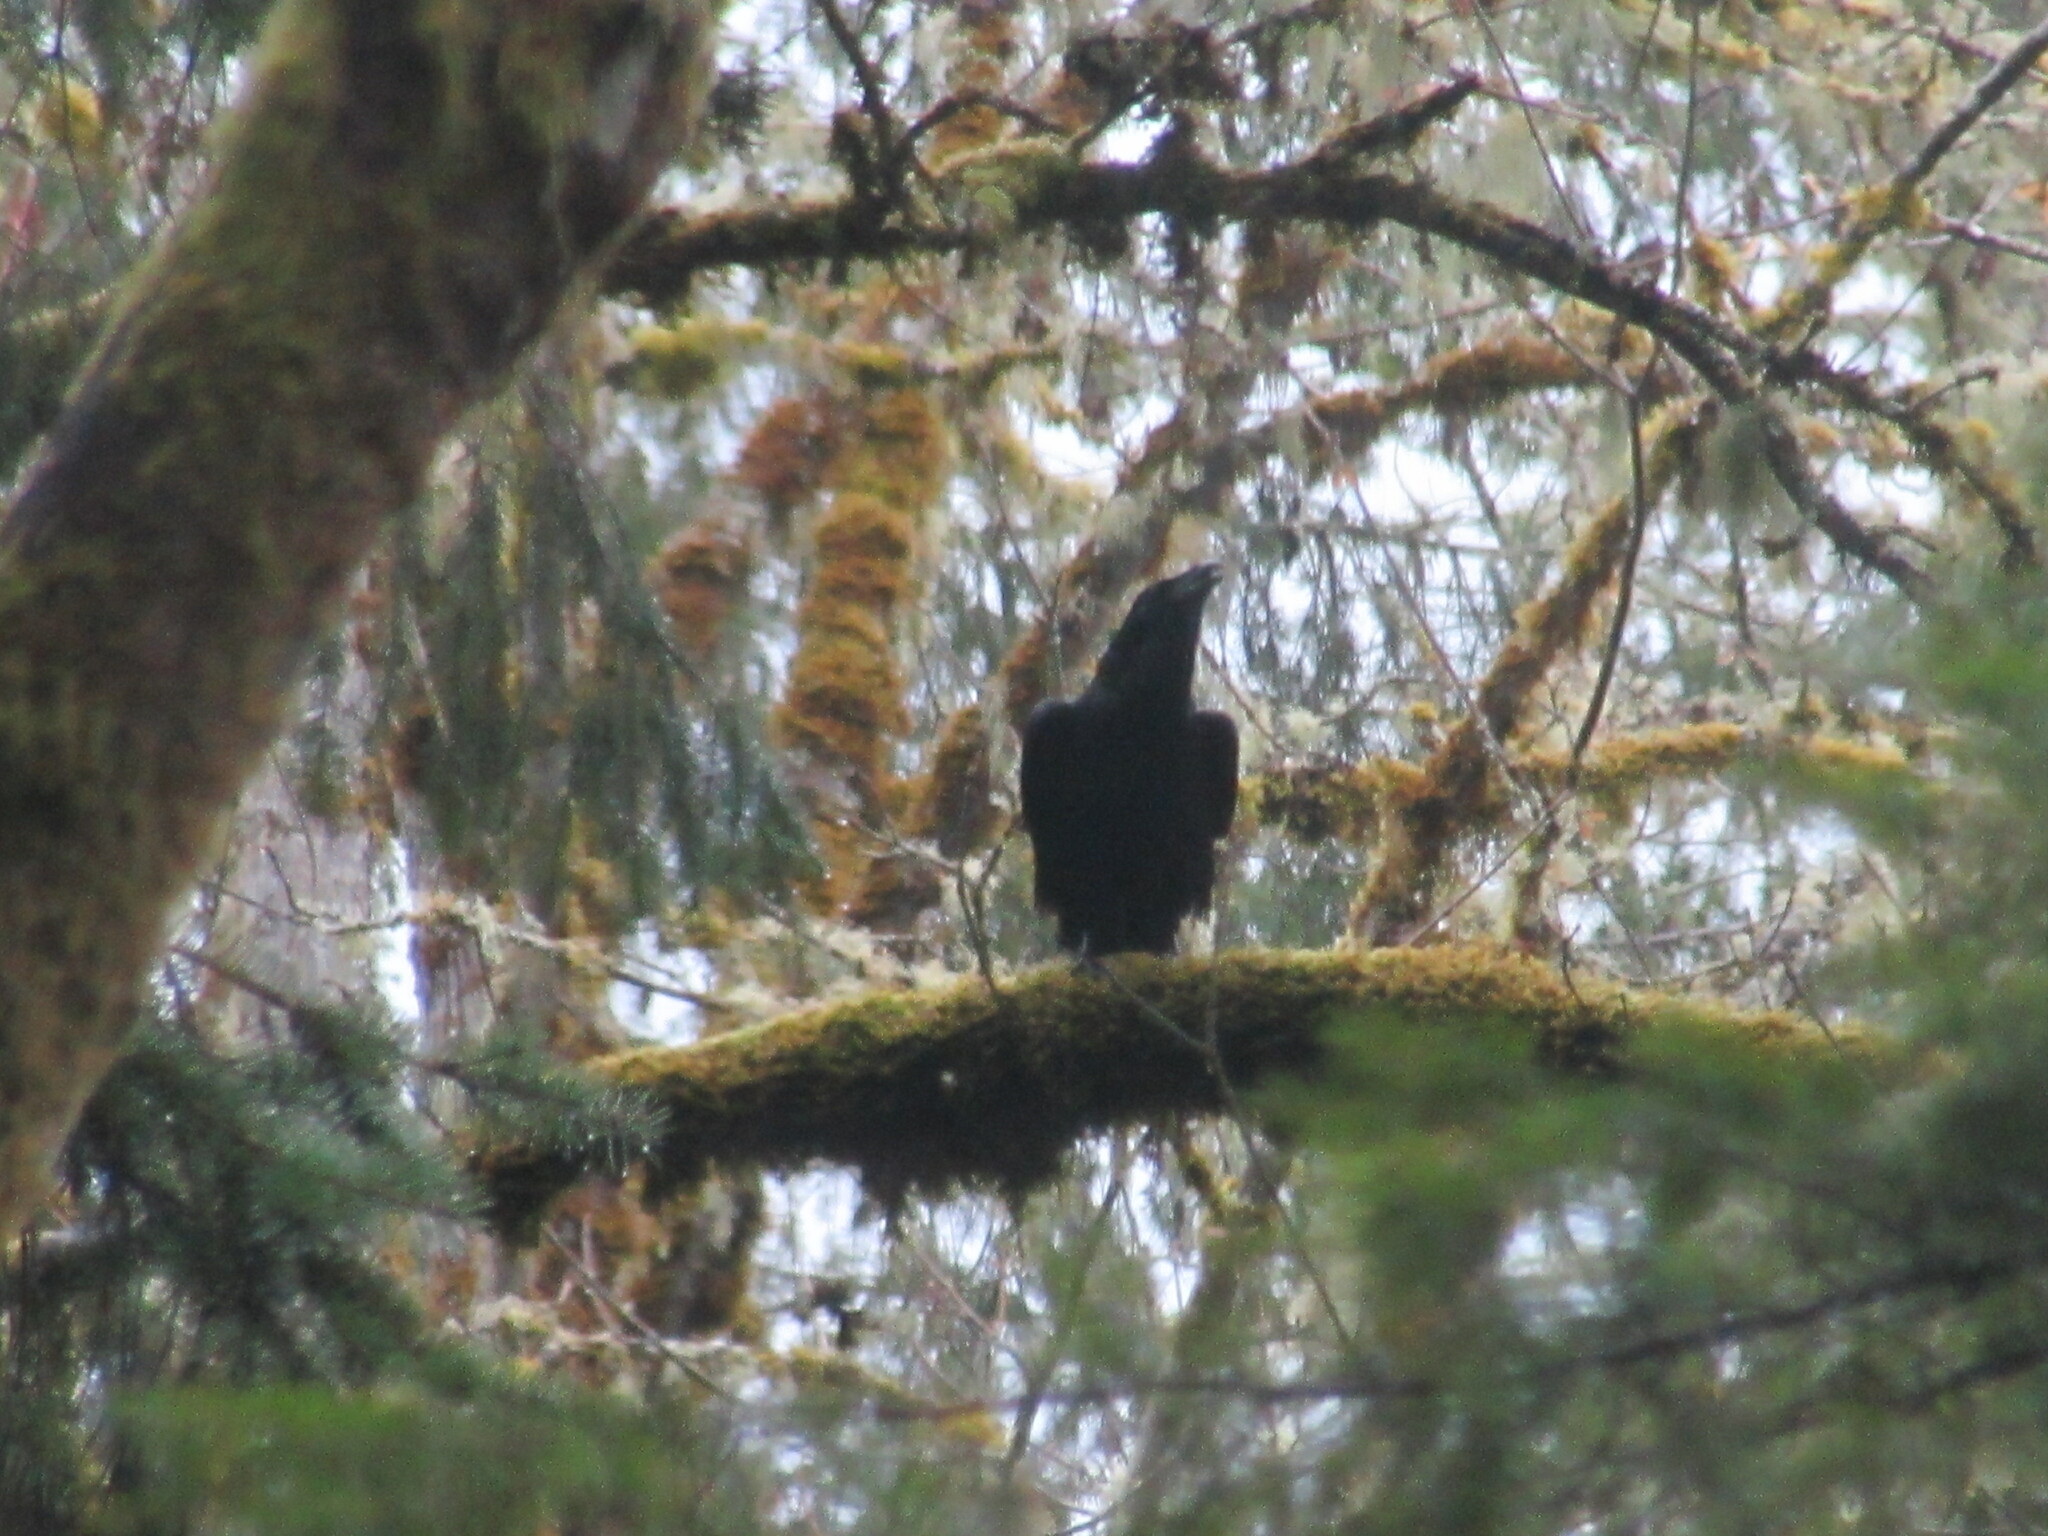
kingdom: Animalia
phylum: Chordata
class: Aves
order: Passeriformes
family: Corvidae
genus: Corvus
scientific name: Corvus corax
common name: Common raven
